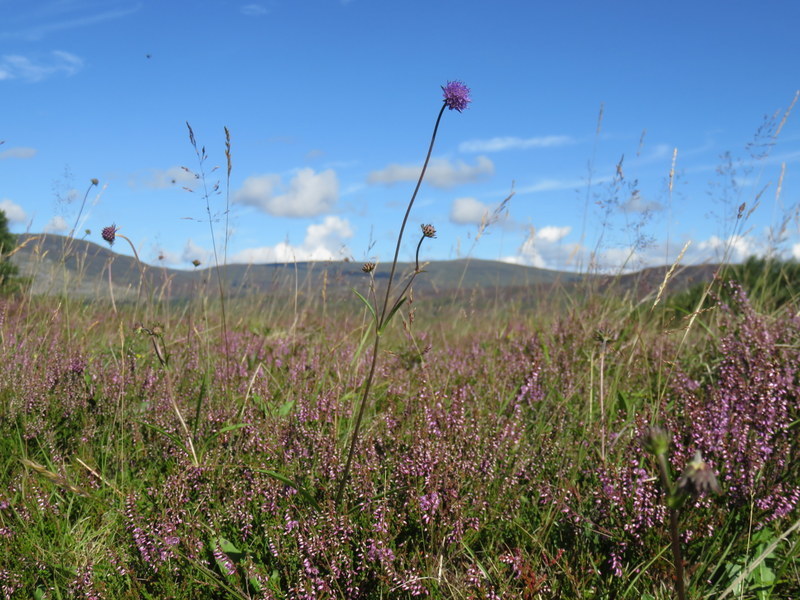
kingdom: Plantae
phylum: Tracheophyta
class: Magnoliopsida
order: Dipsacales
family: Caprifoliaceae
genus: Succisa
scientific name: Succisa pratensis
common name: Devil's-bit
